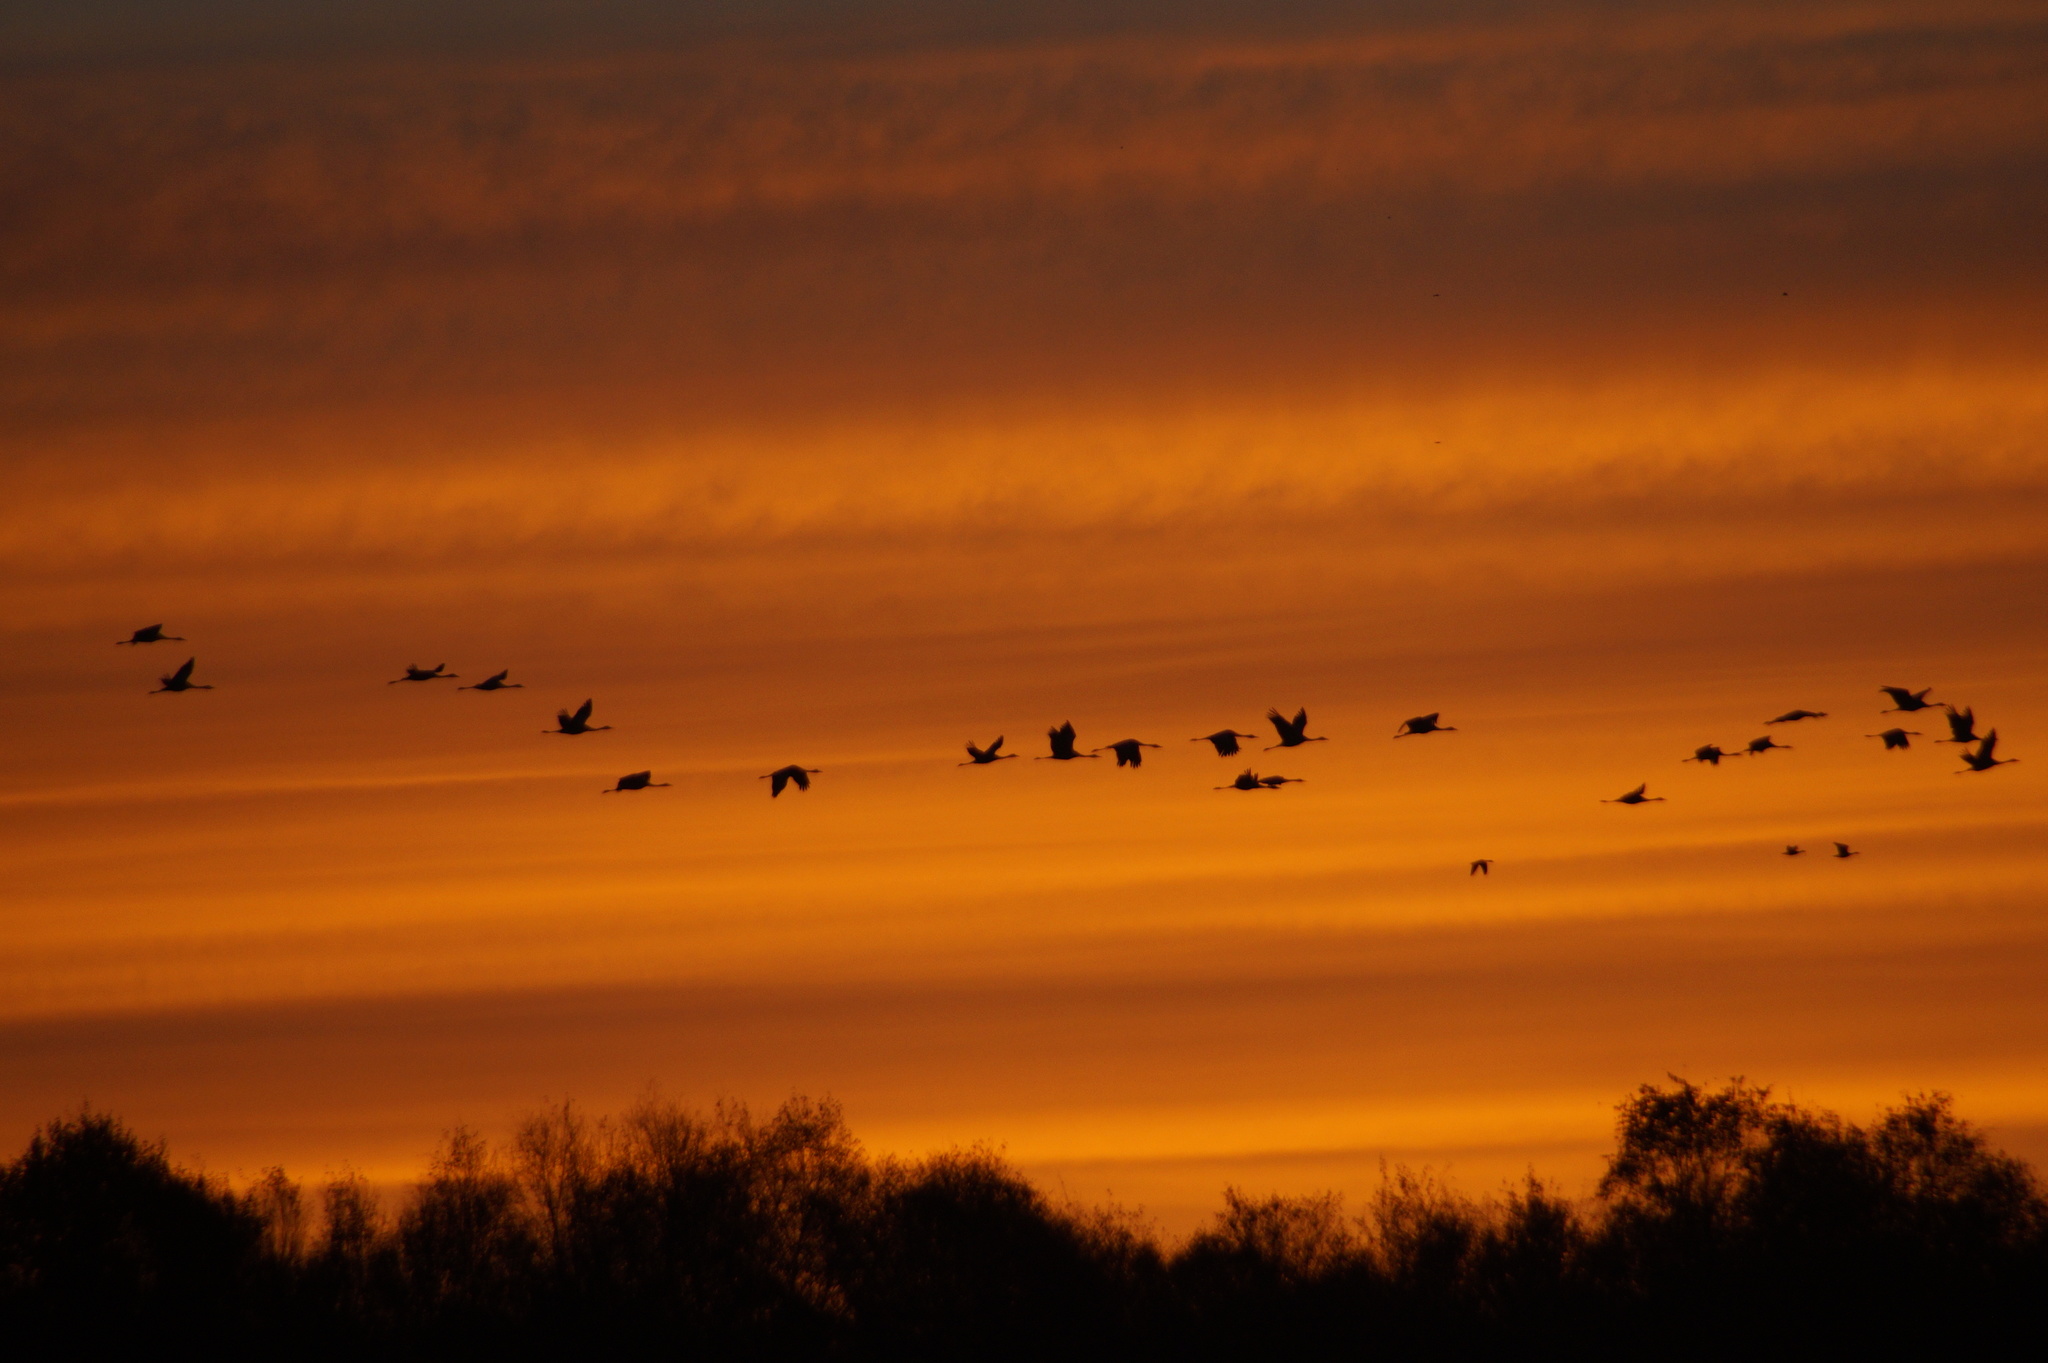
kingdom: Animalia
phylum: Chordata
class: Aves
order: Gruiformes
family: Gruidae
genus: Grus
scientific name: Grus grus
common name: Common crane
